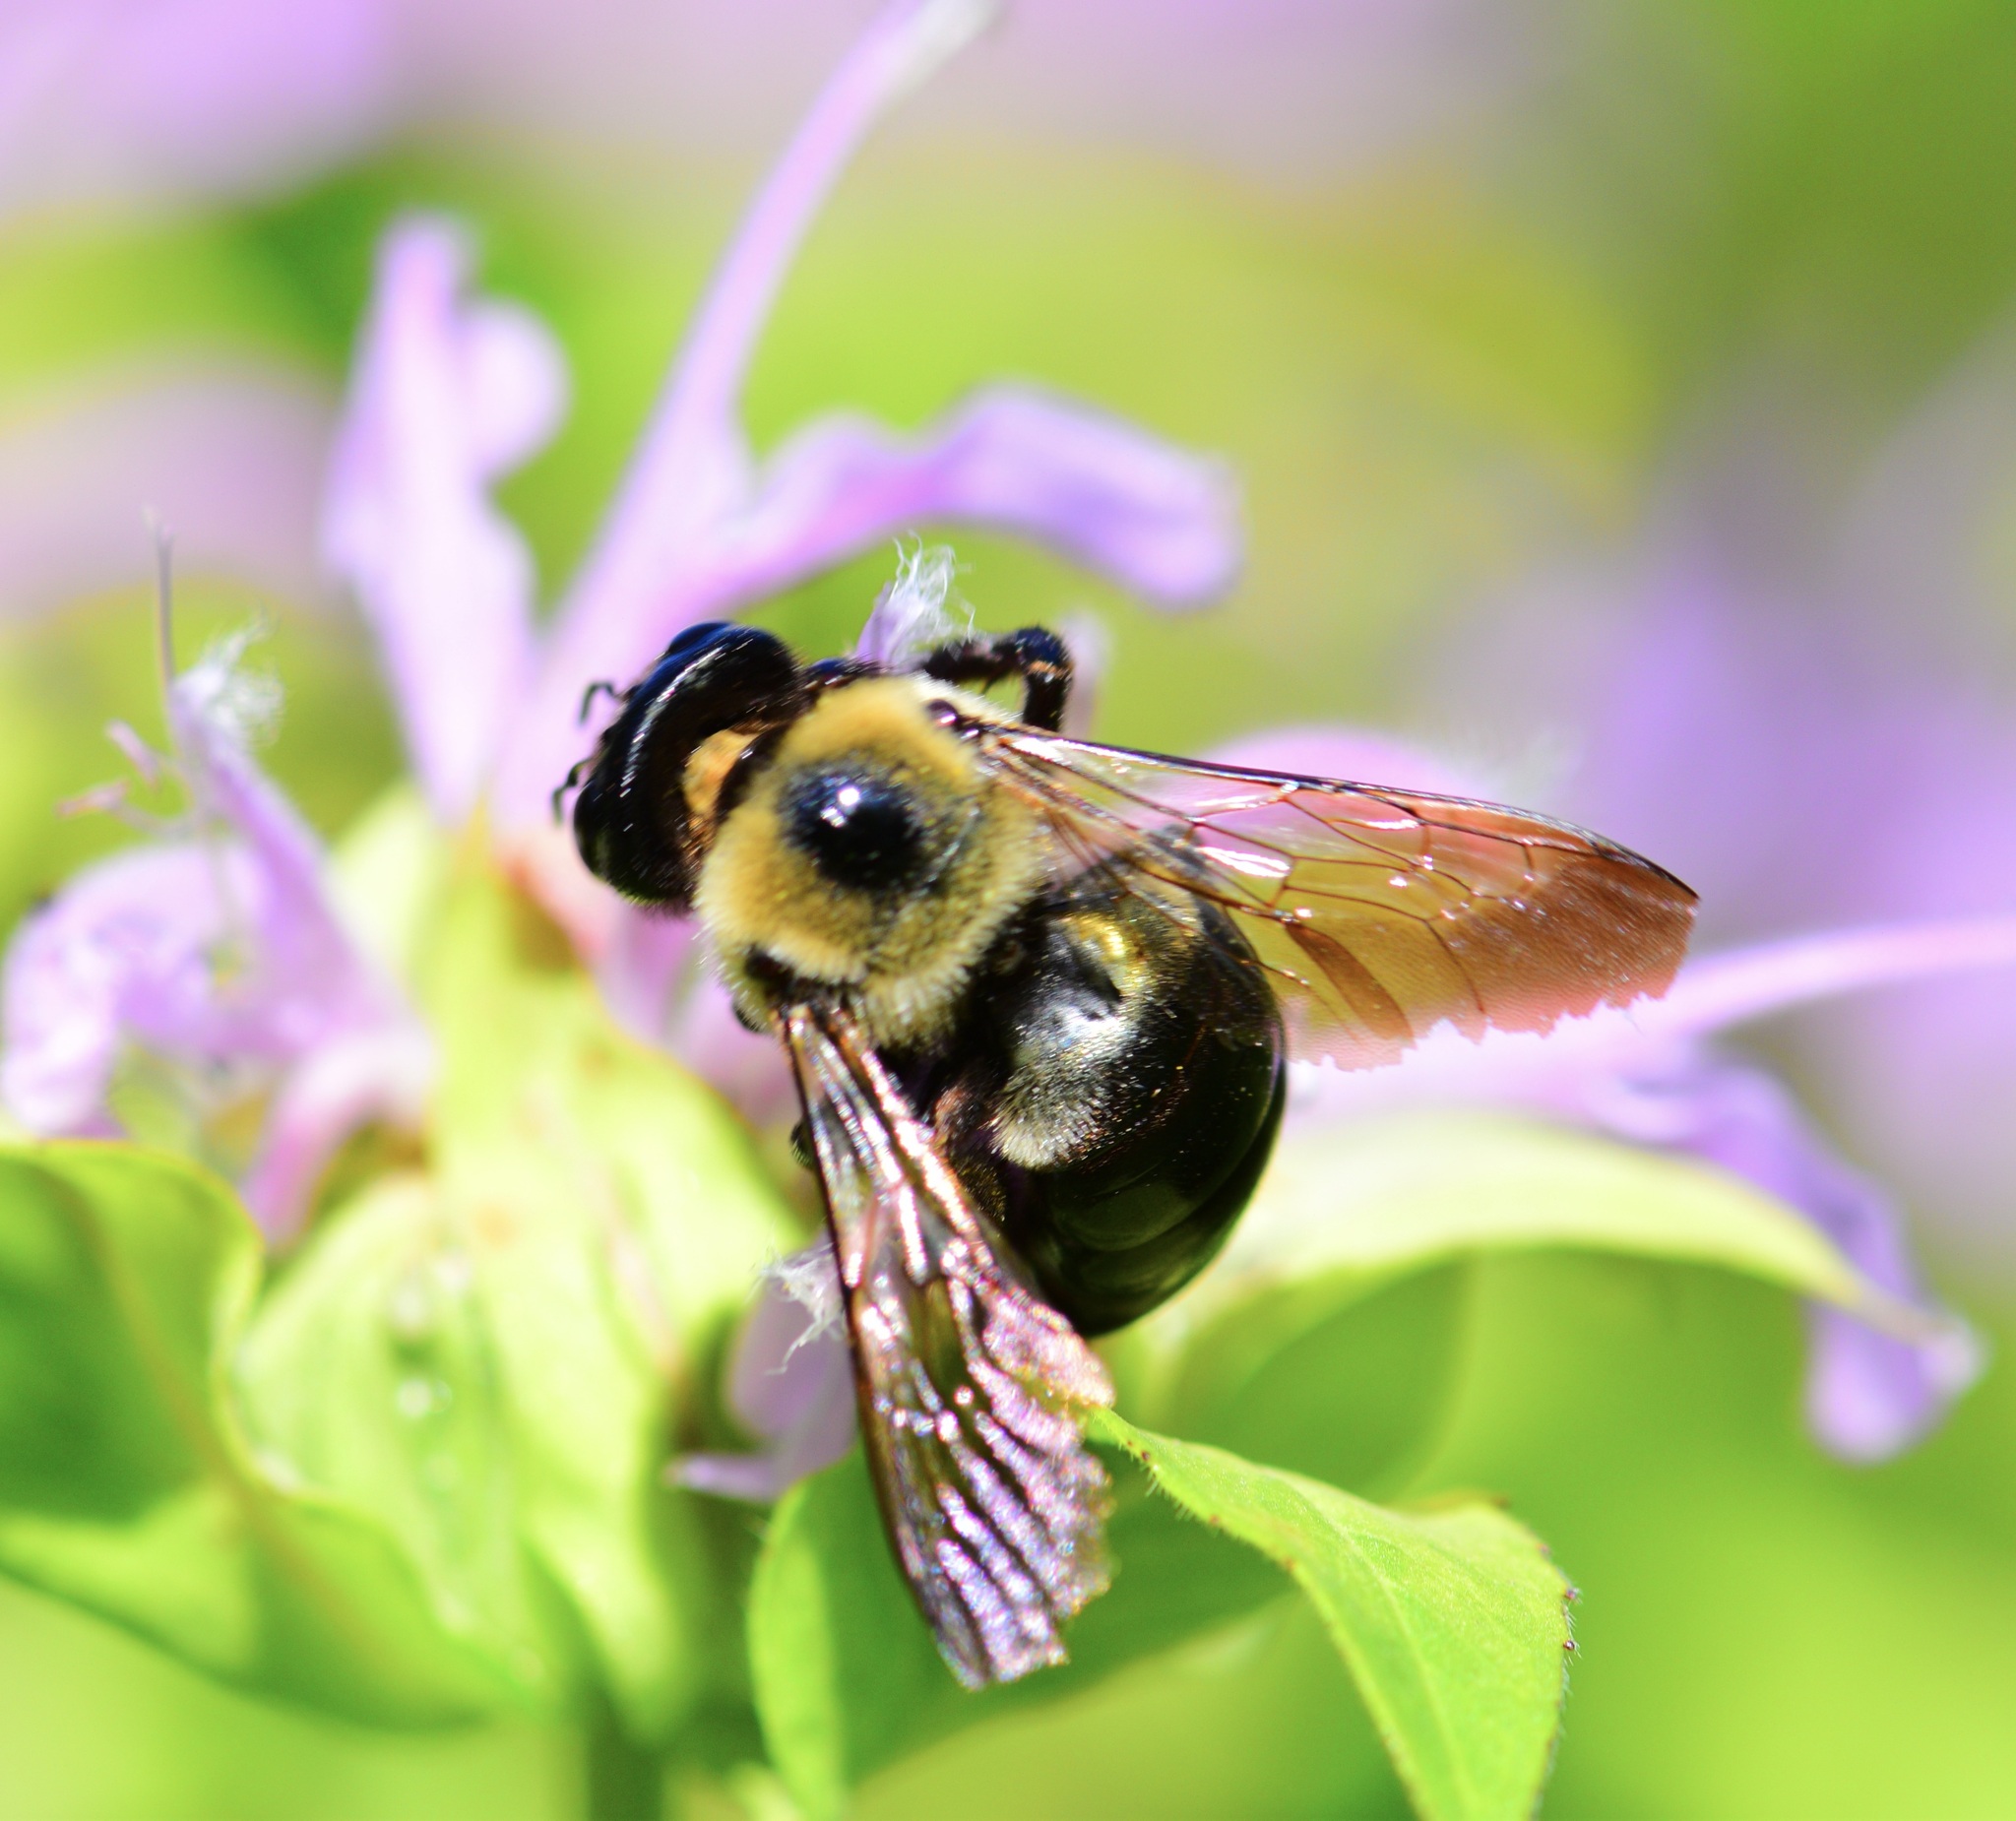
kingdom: Animalia
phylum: Arthropoda
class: Insecta
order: Hymenoptera
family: Apidae
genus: Xylocopa
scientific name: Xylocopa virginica
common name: Carpenter bee
